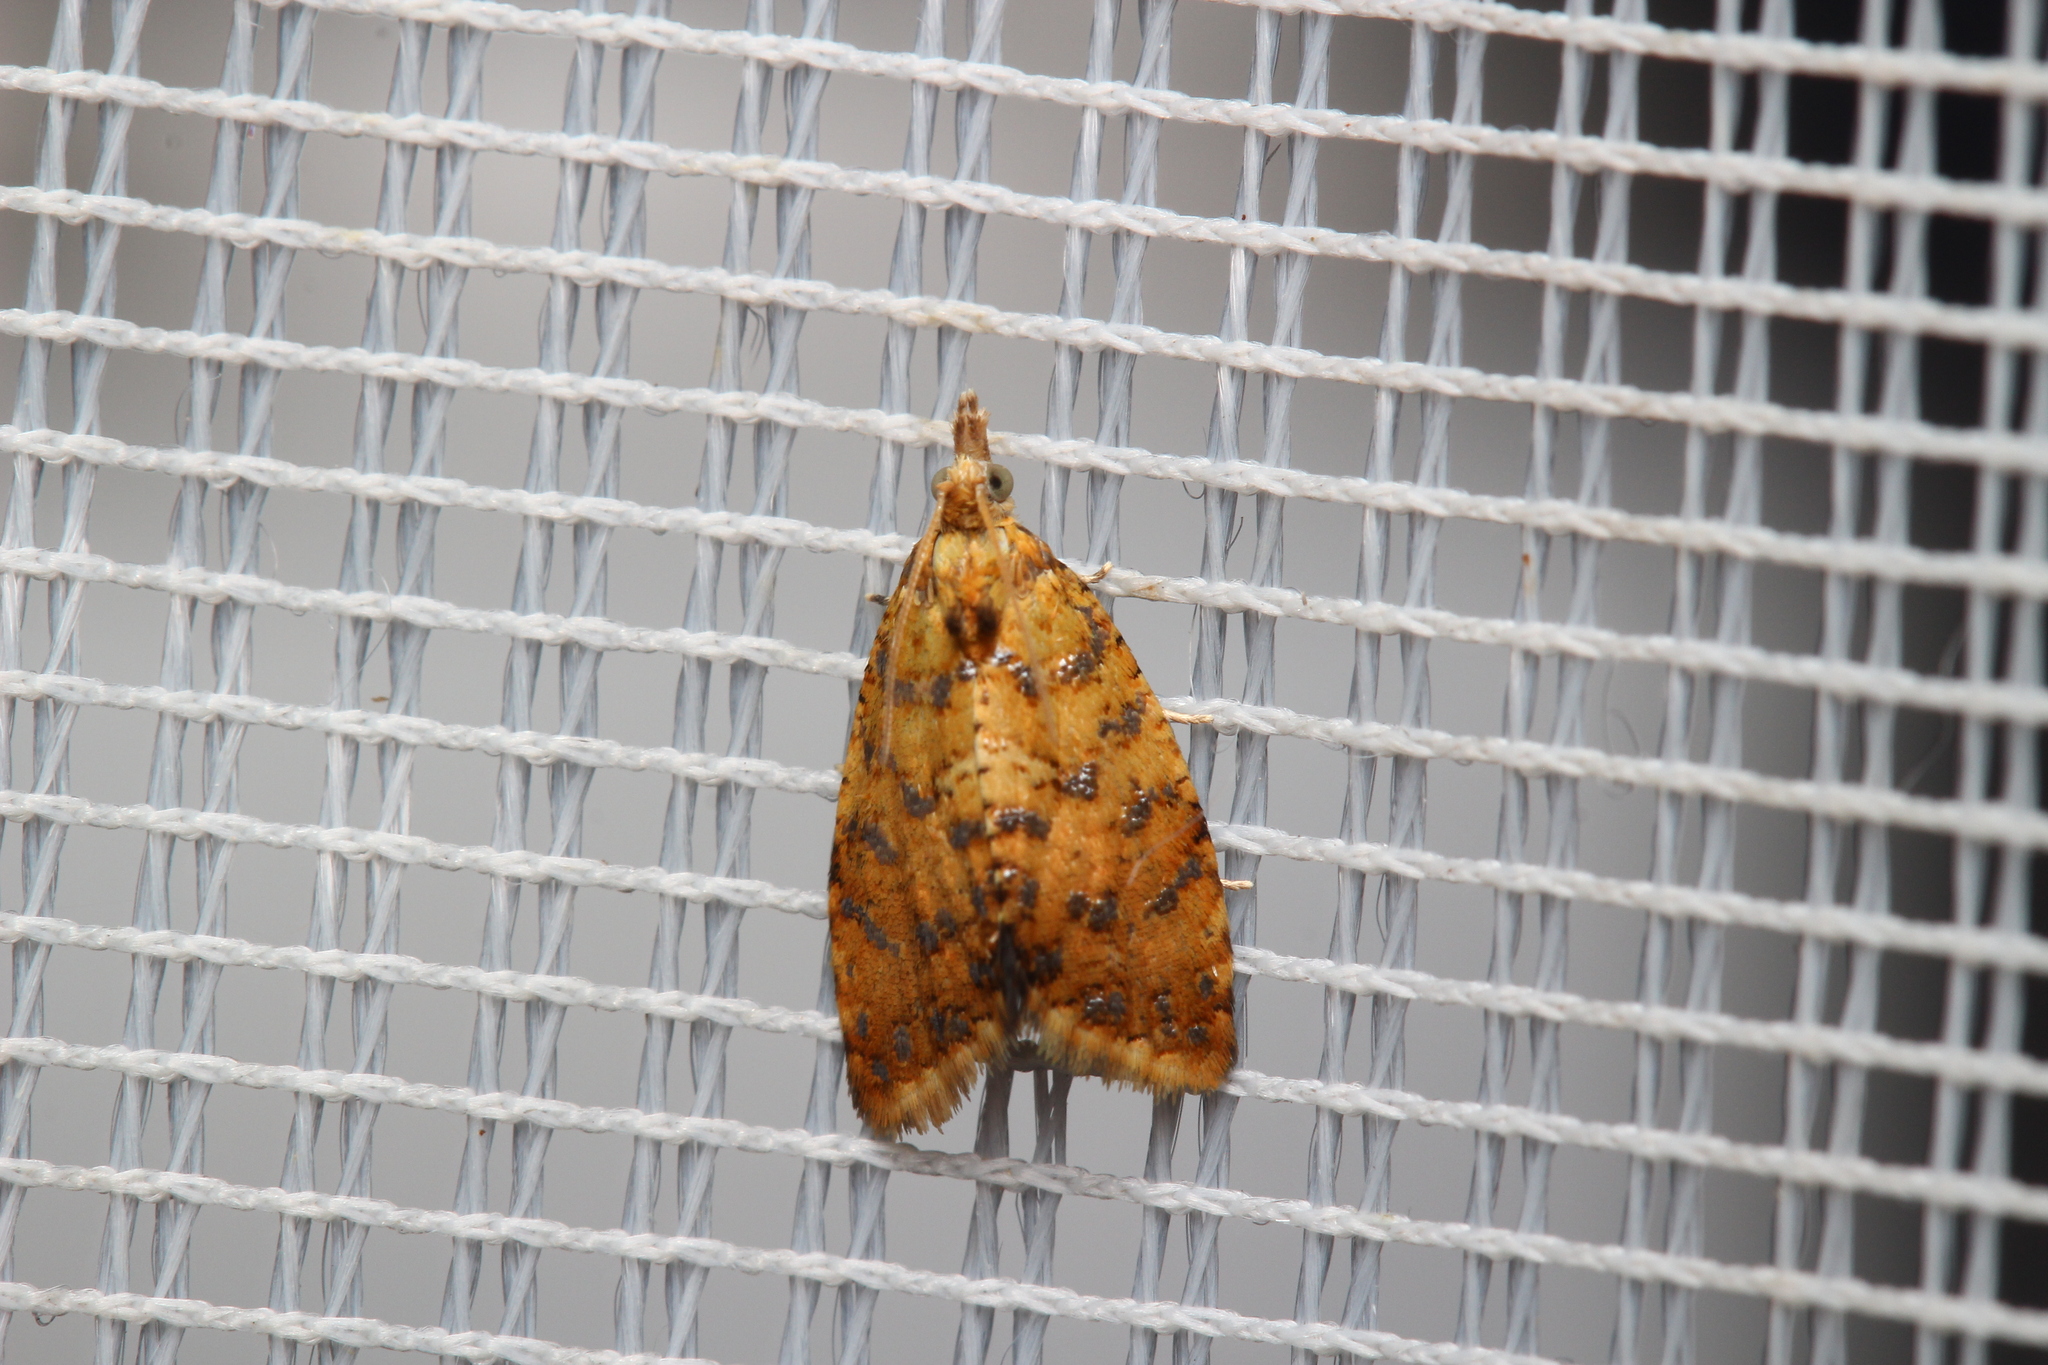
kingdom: Animalia
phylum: Arthropoda
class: Insecta
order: Lepidoptera
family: Tortricidae
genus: Pseudargyrotoza
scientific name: Pseudargyrotoza conwagana
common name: Yellow-spot twist
